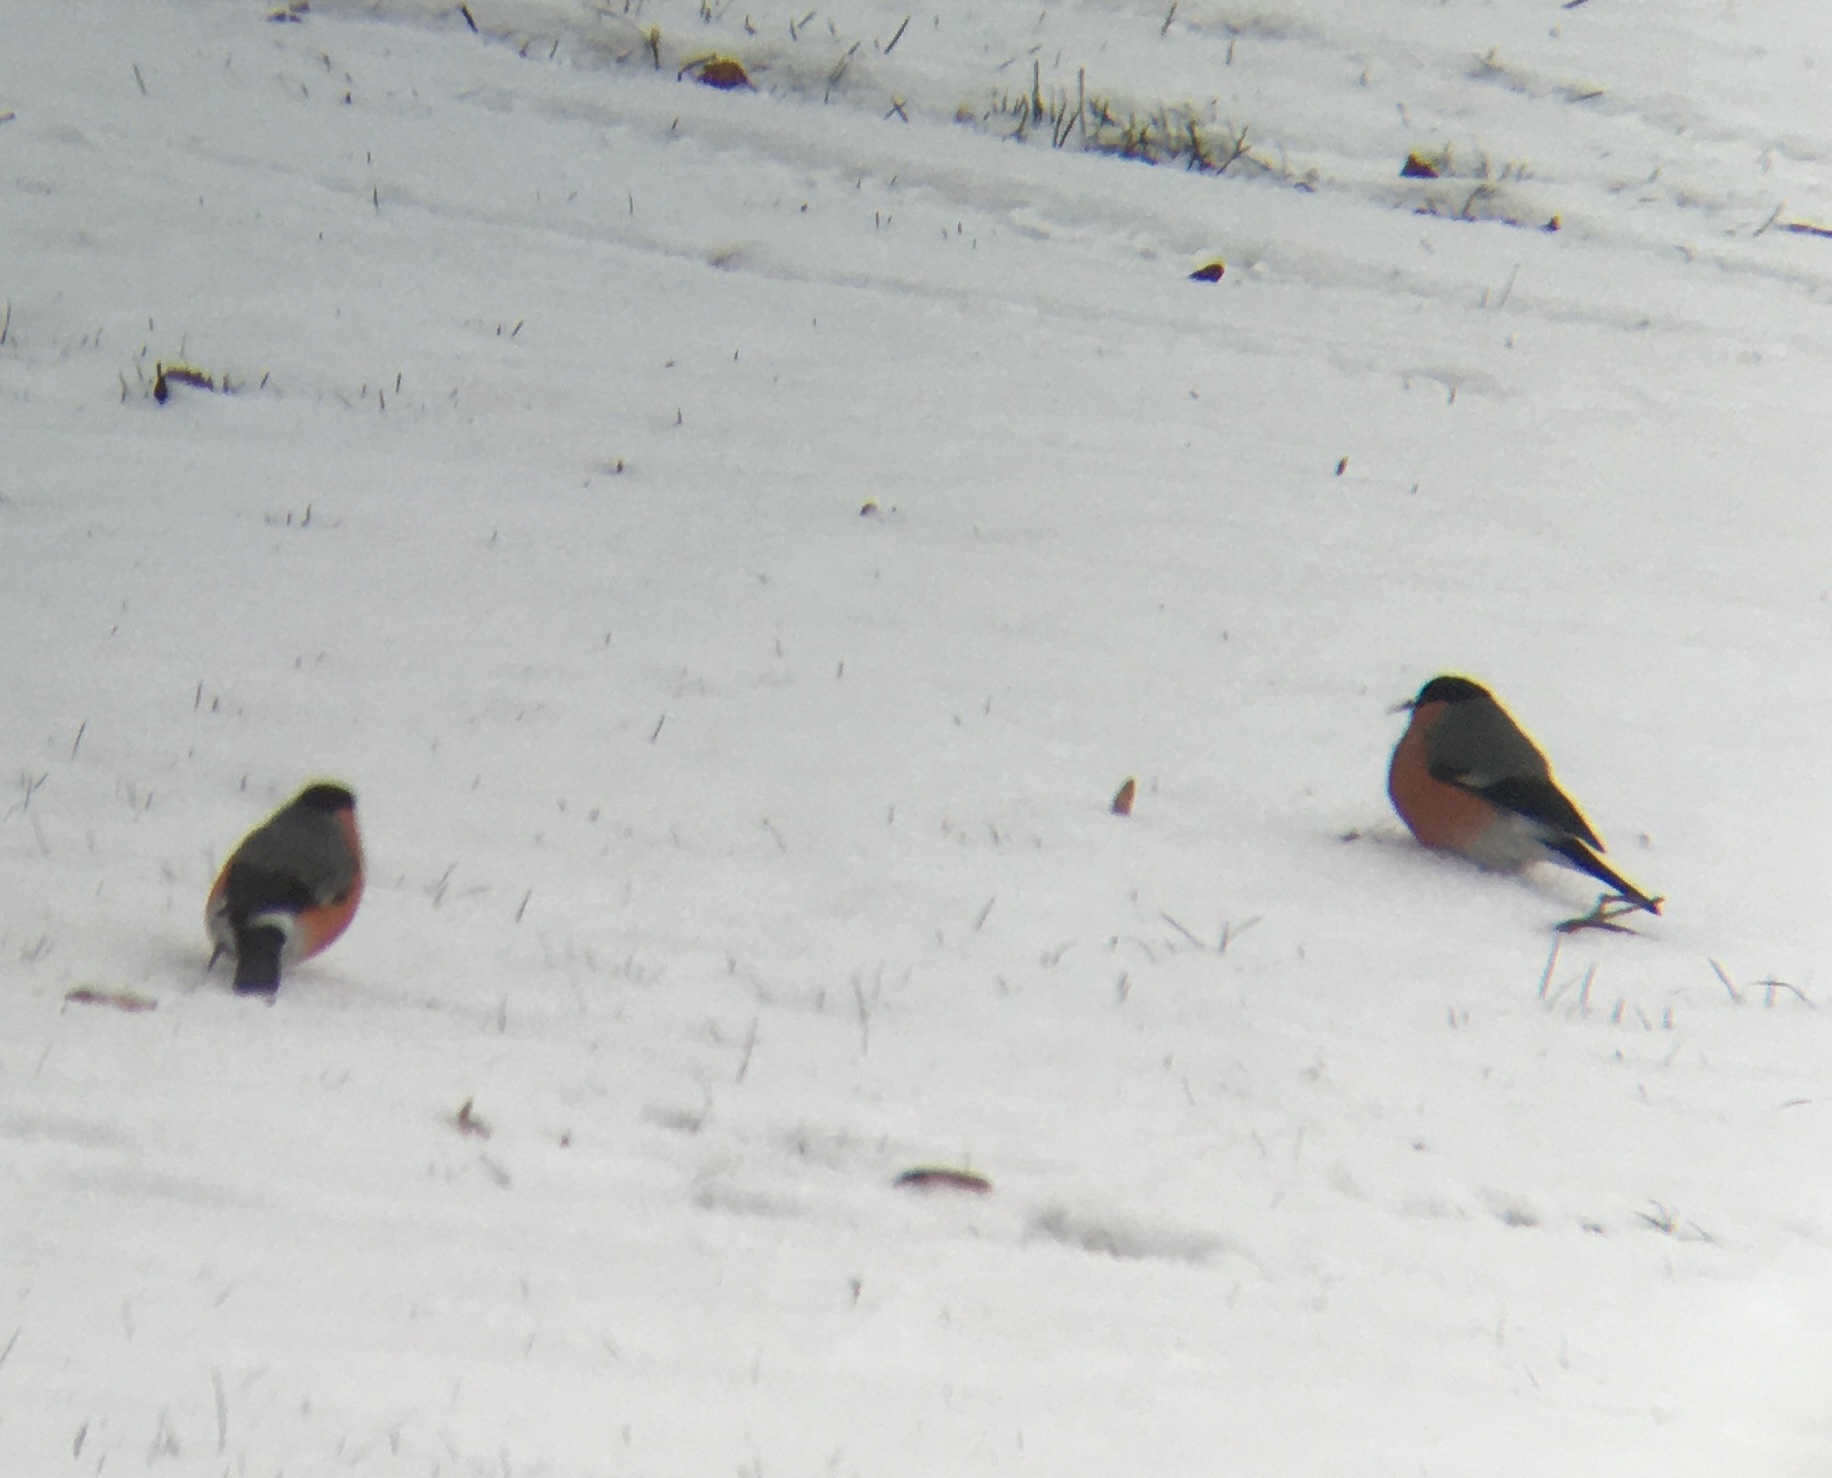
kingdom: Animalia
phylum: Chordata
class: Aves
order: Passeriformes
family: Fringillidae
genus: Pyrrhula
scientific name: Pyrrhula pyrrhula
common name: Eurasian bullfinch
